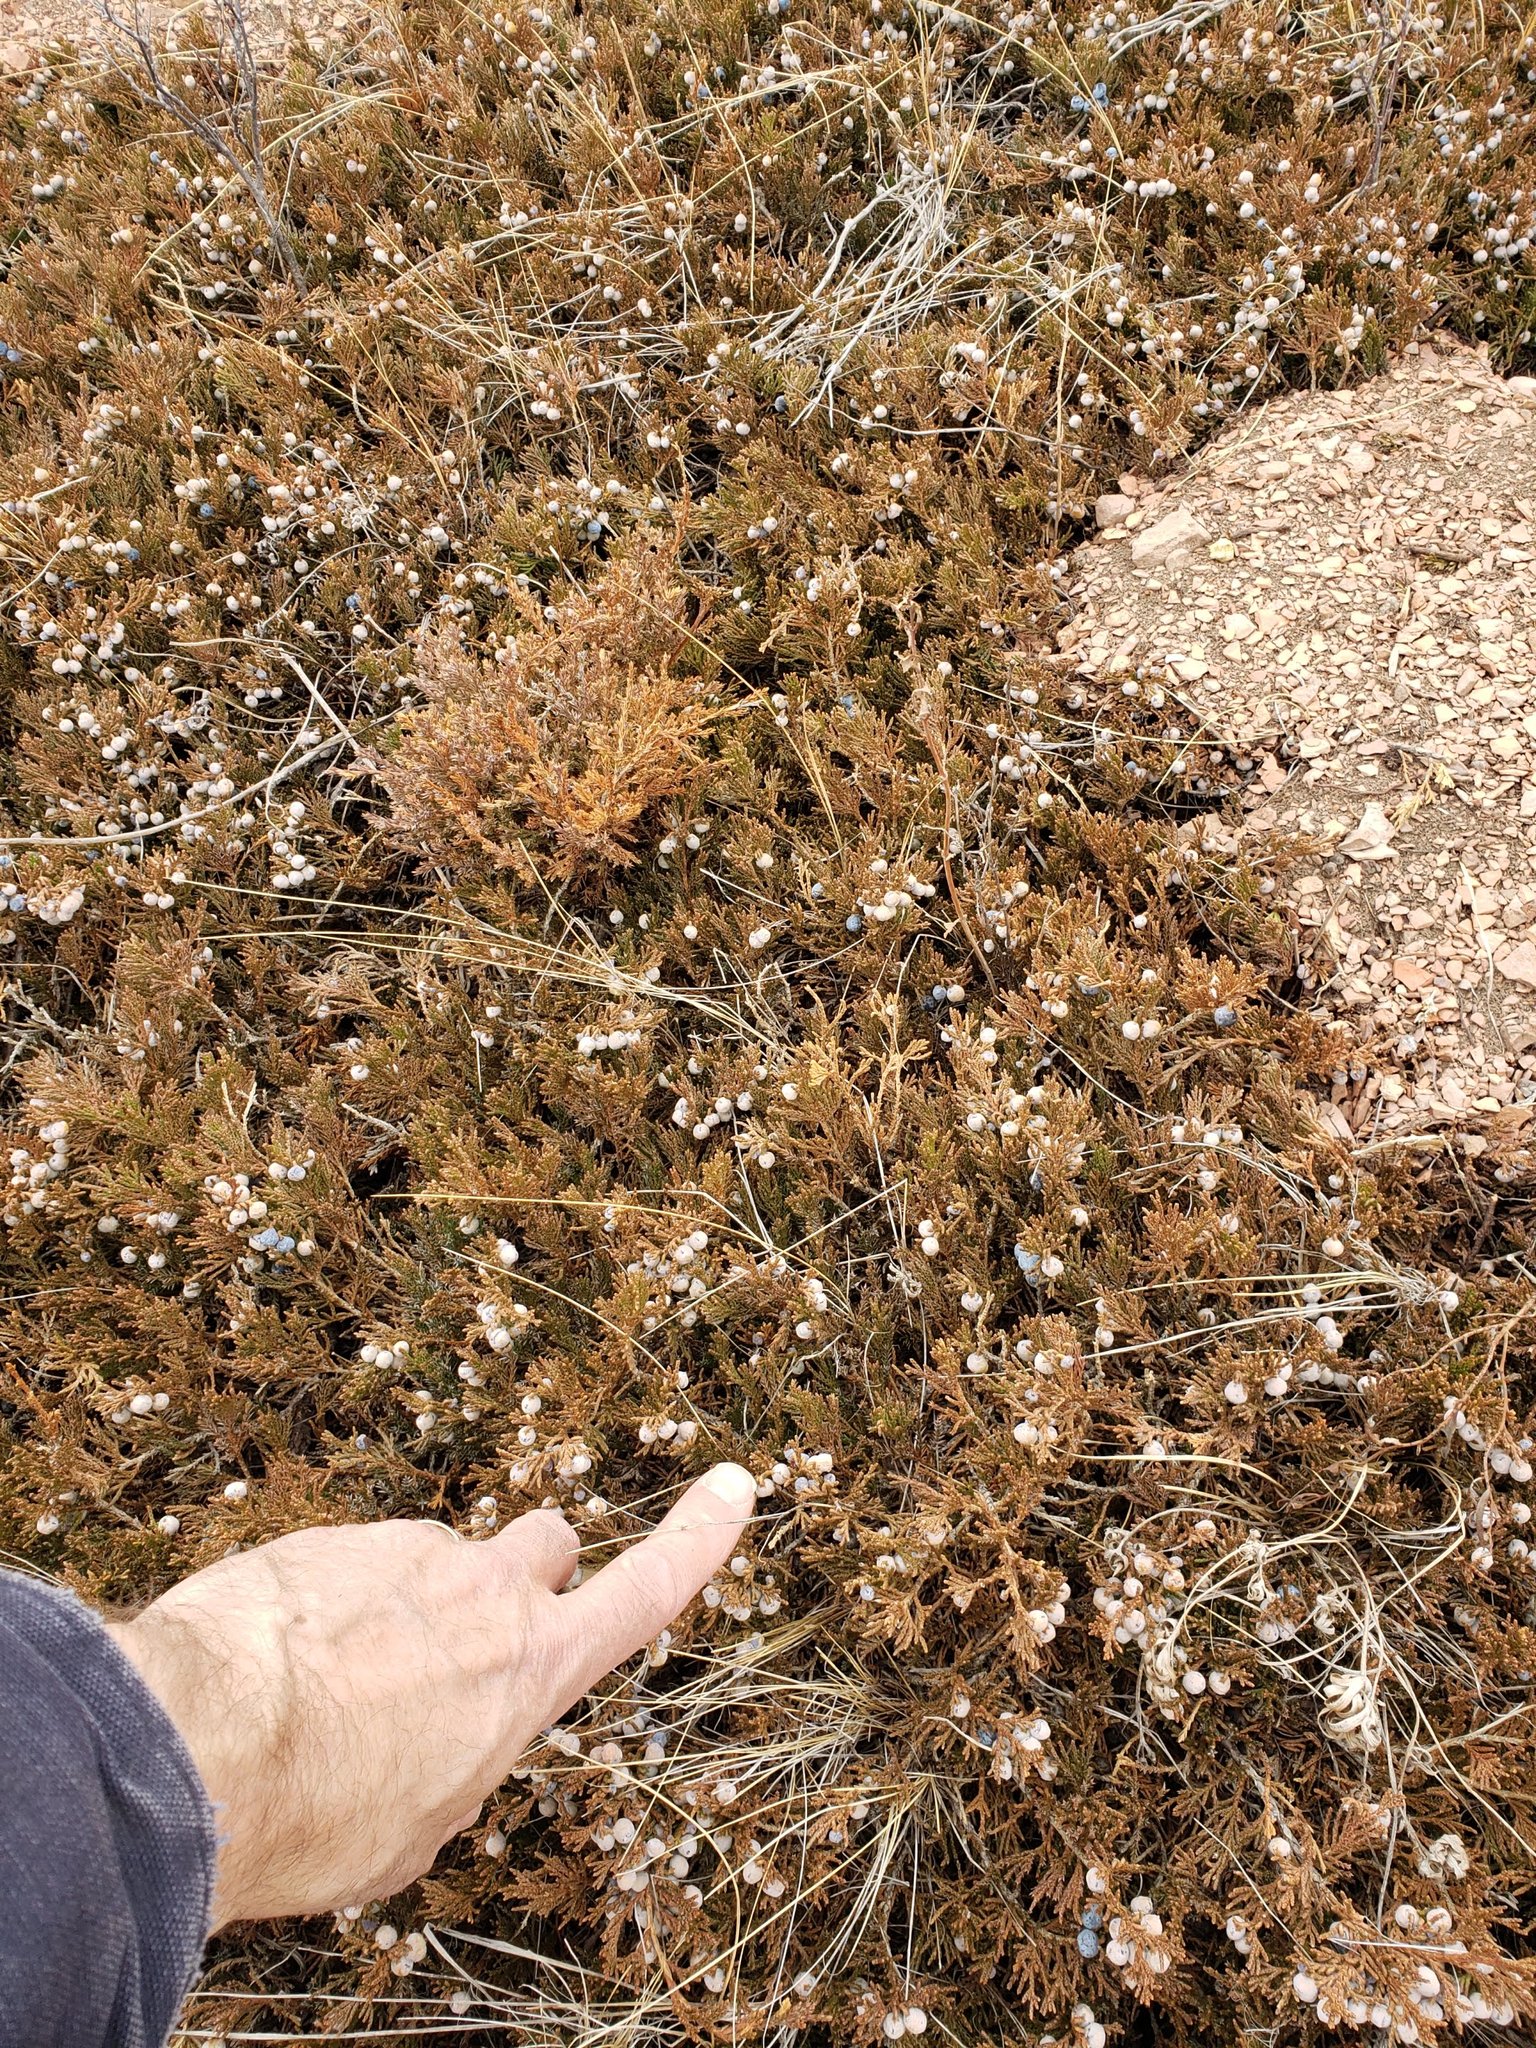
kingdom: Plantae
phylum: Tracheophyta
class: Pinopsida
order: Pinales
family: Cupressaceae
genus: Juniperus
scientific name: Juniperus horizontalis
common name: Creeping juniper
